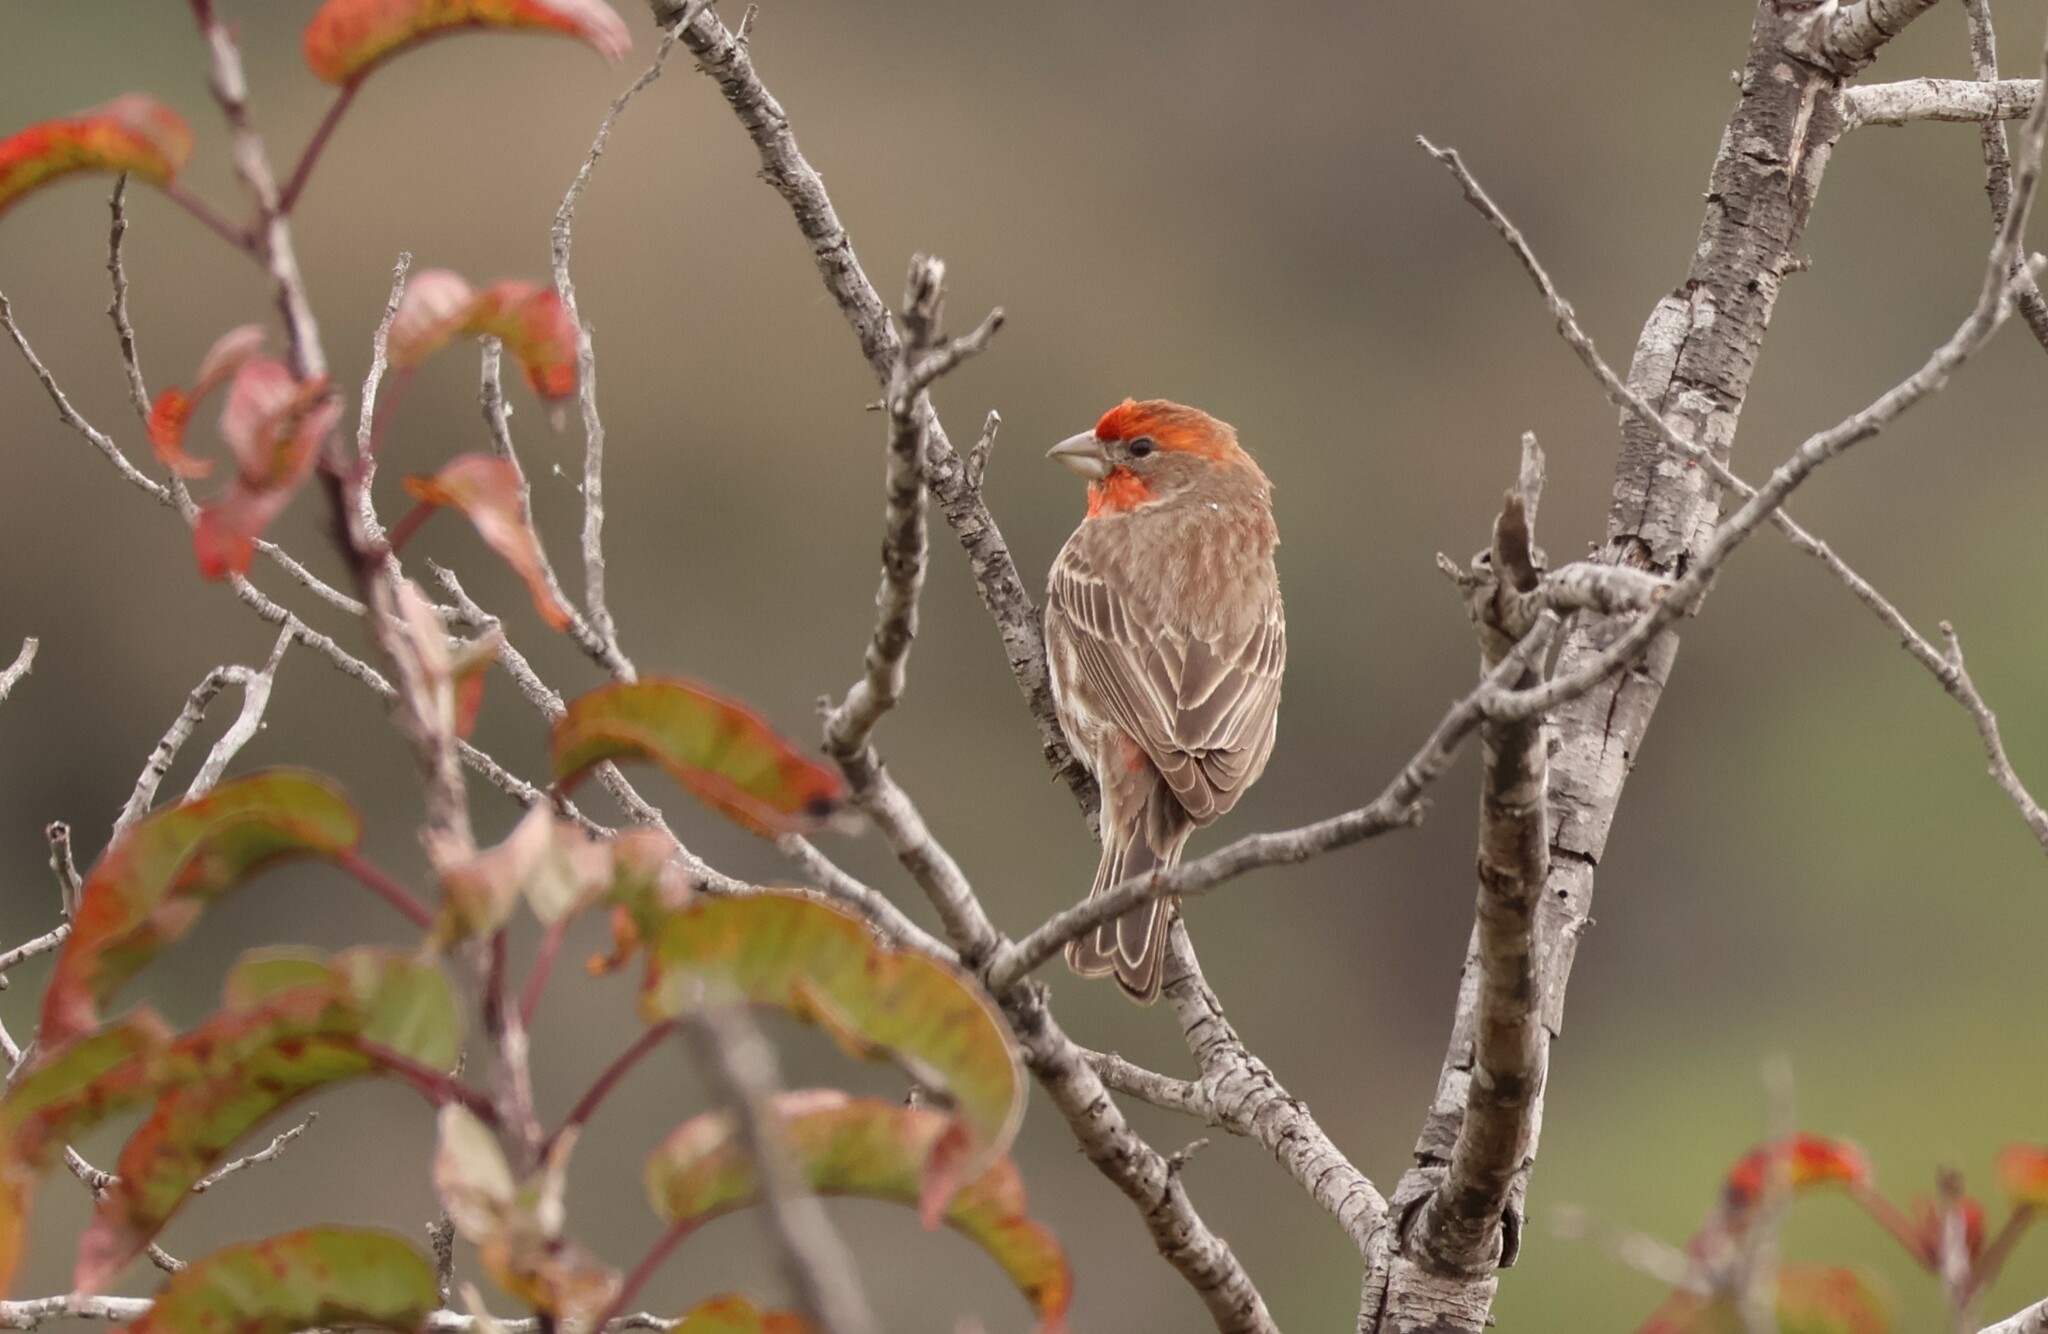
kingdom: Animalia
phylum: Chordata
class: Aves
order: Passeriformes
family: Fringillidae
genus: Haemorhous
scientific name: Haemorhous mexicanus
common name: House finch
